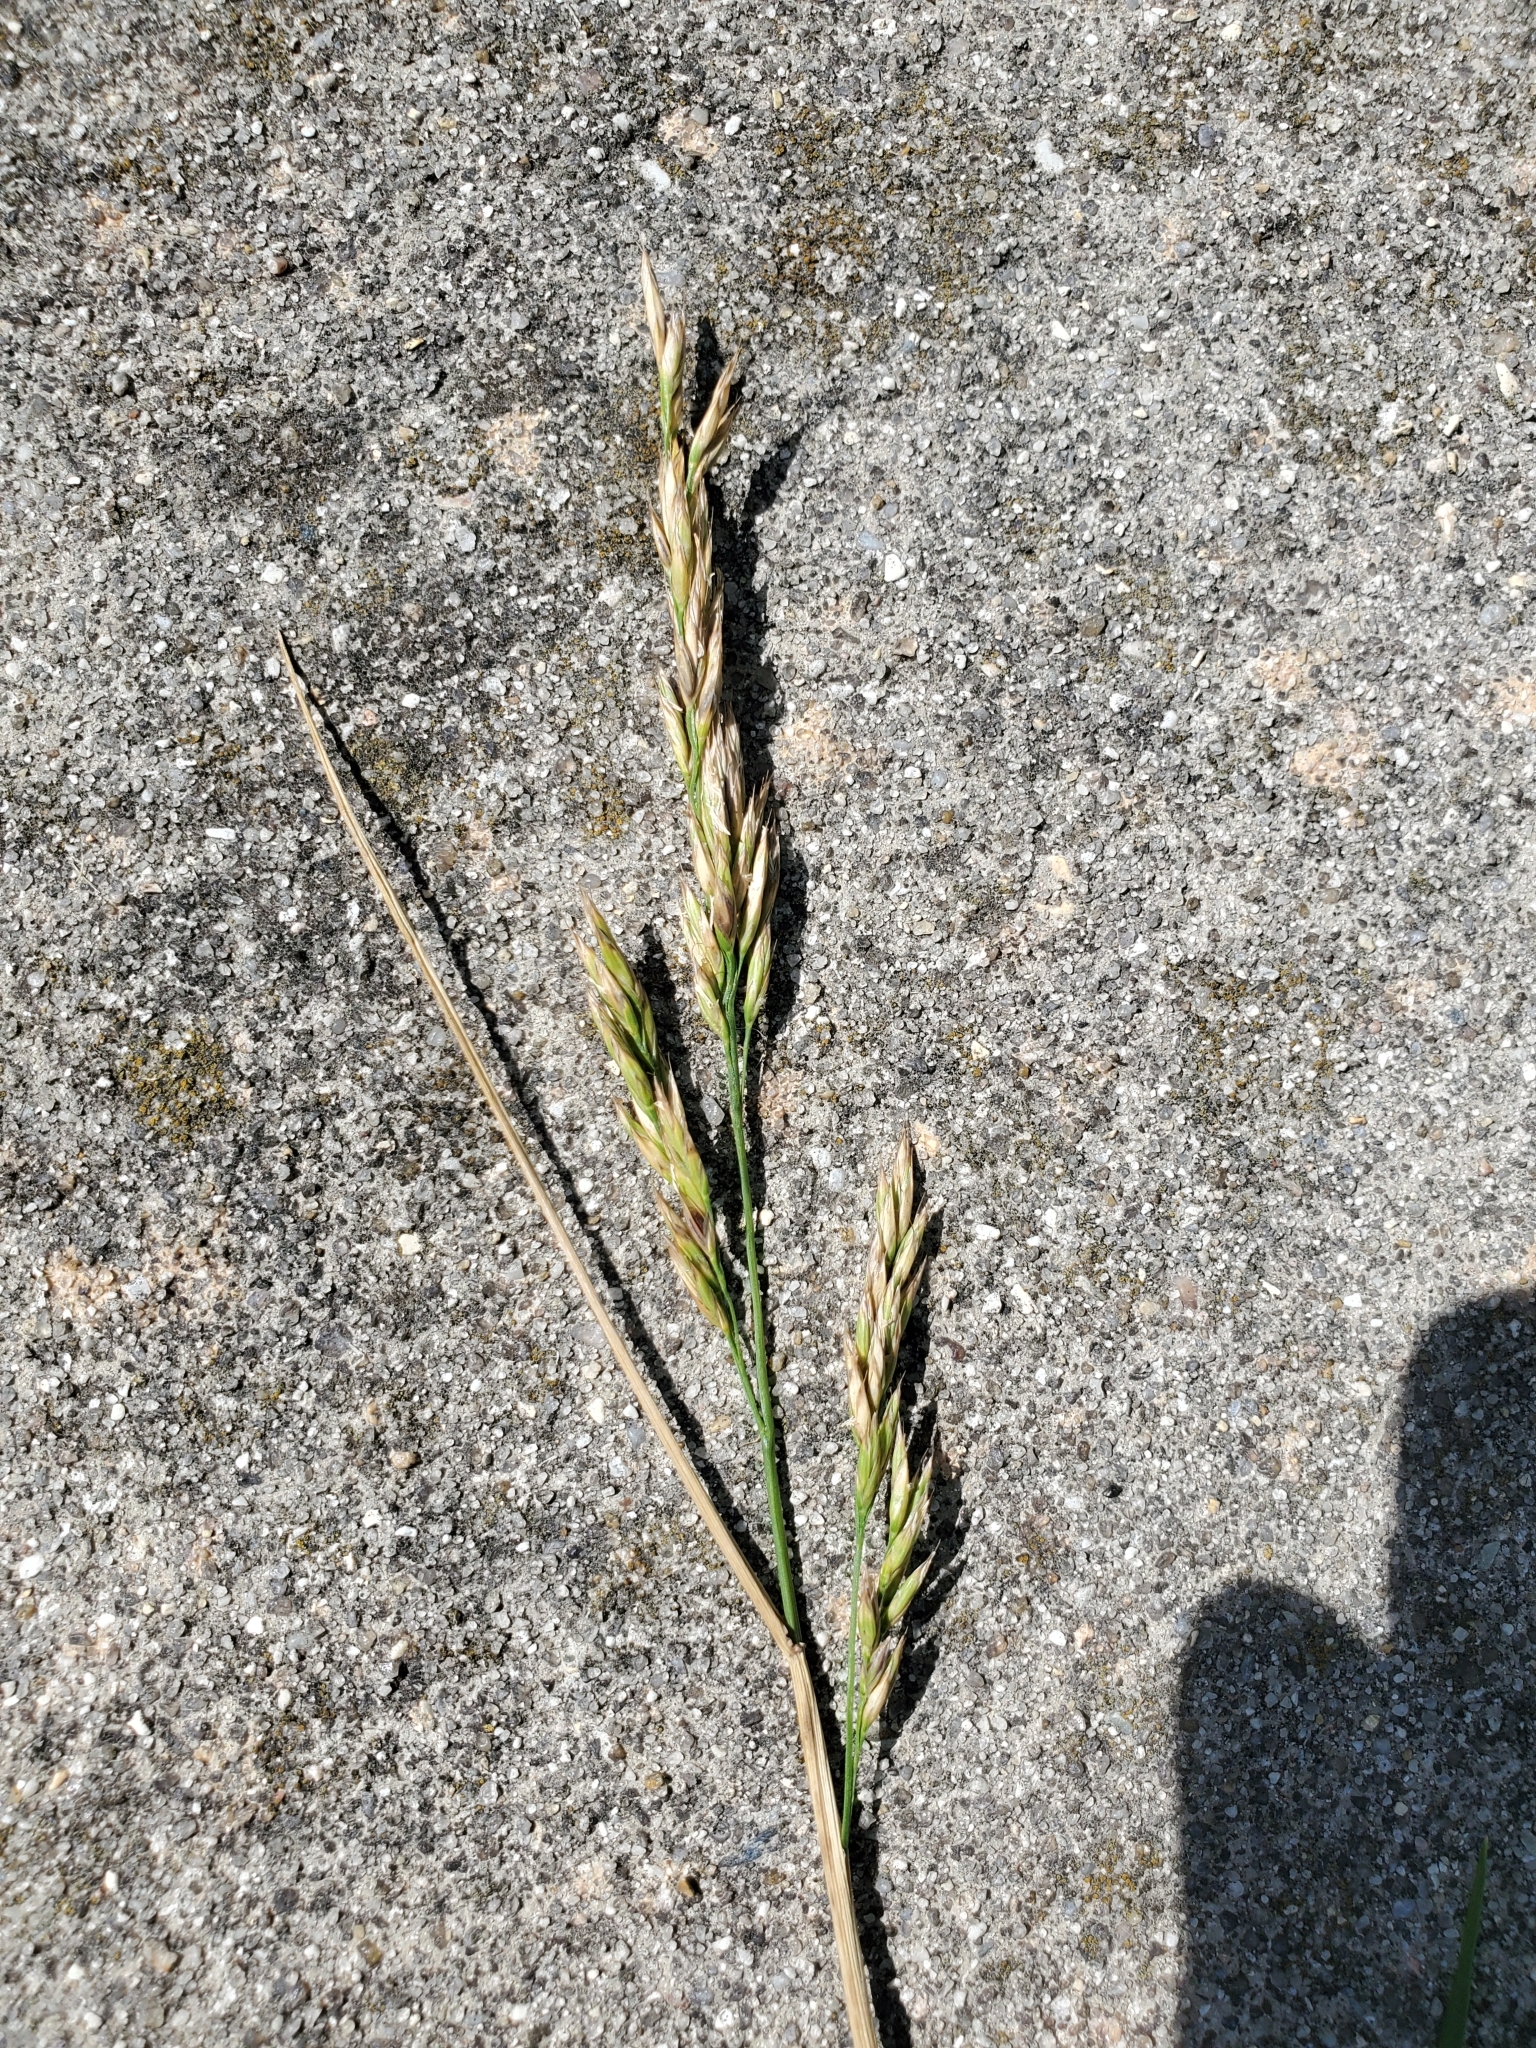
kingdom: Plantae
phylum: Tracheophyta
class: Liliopsida
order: Poales
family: Poaceae
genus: Lolium
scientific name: Lolium arundinaceum
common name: Reed fescue
